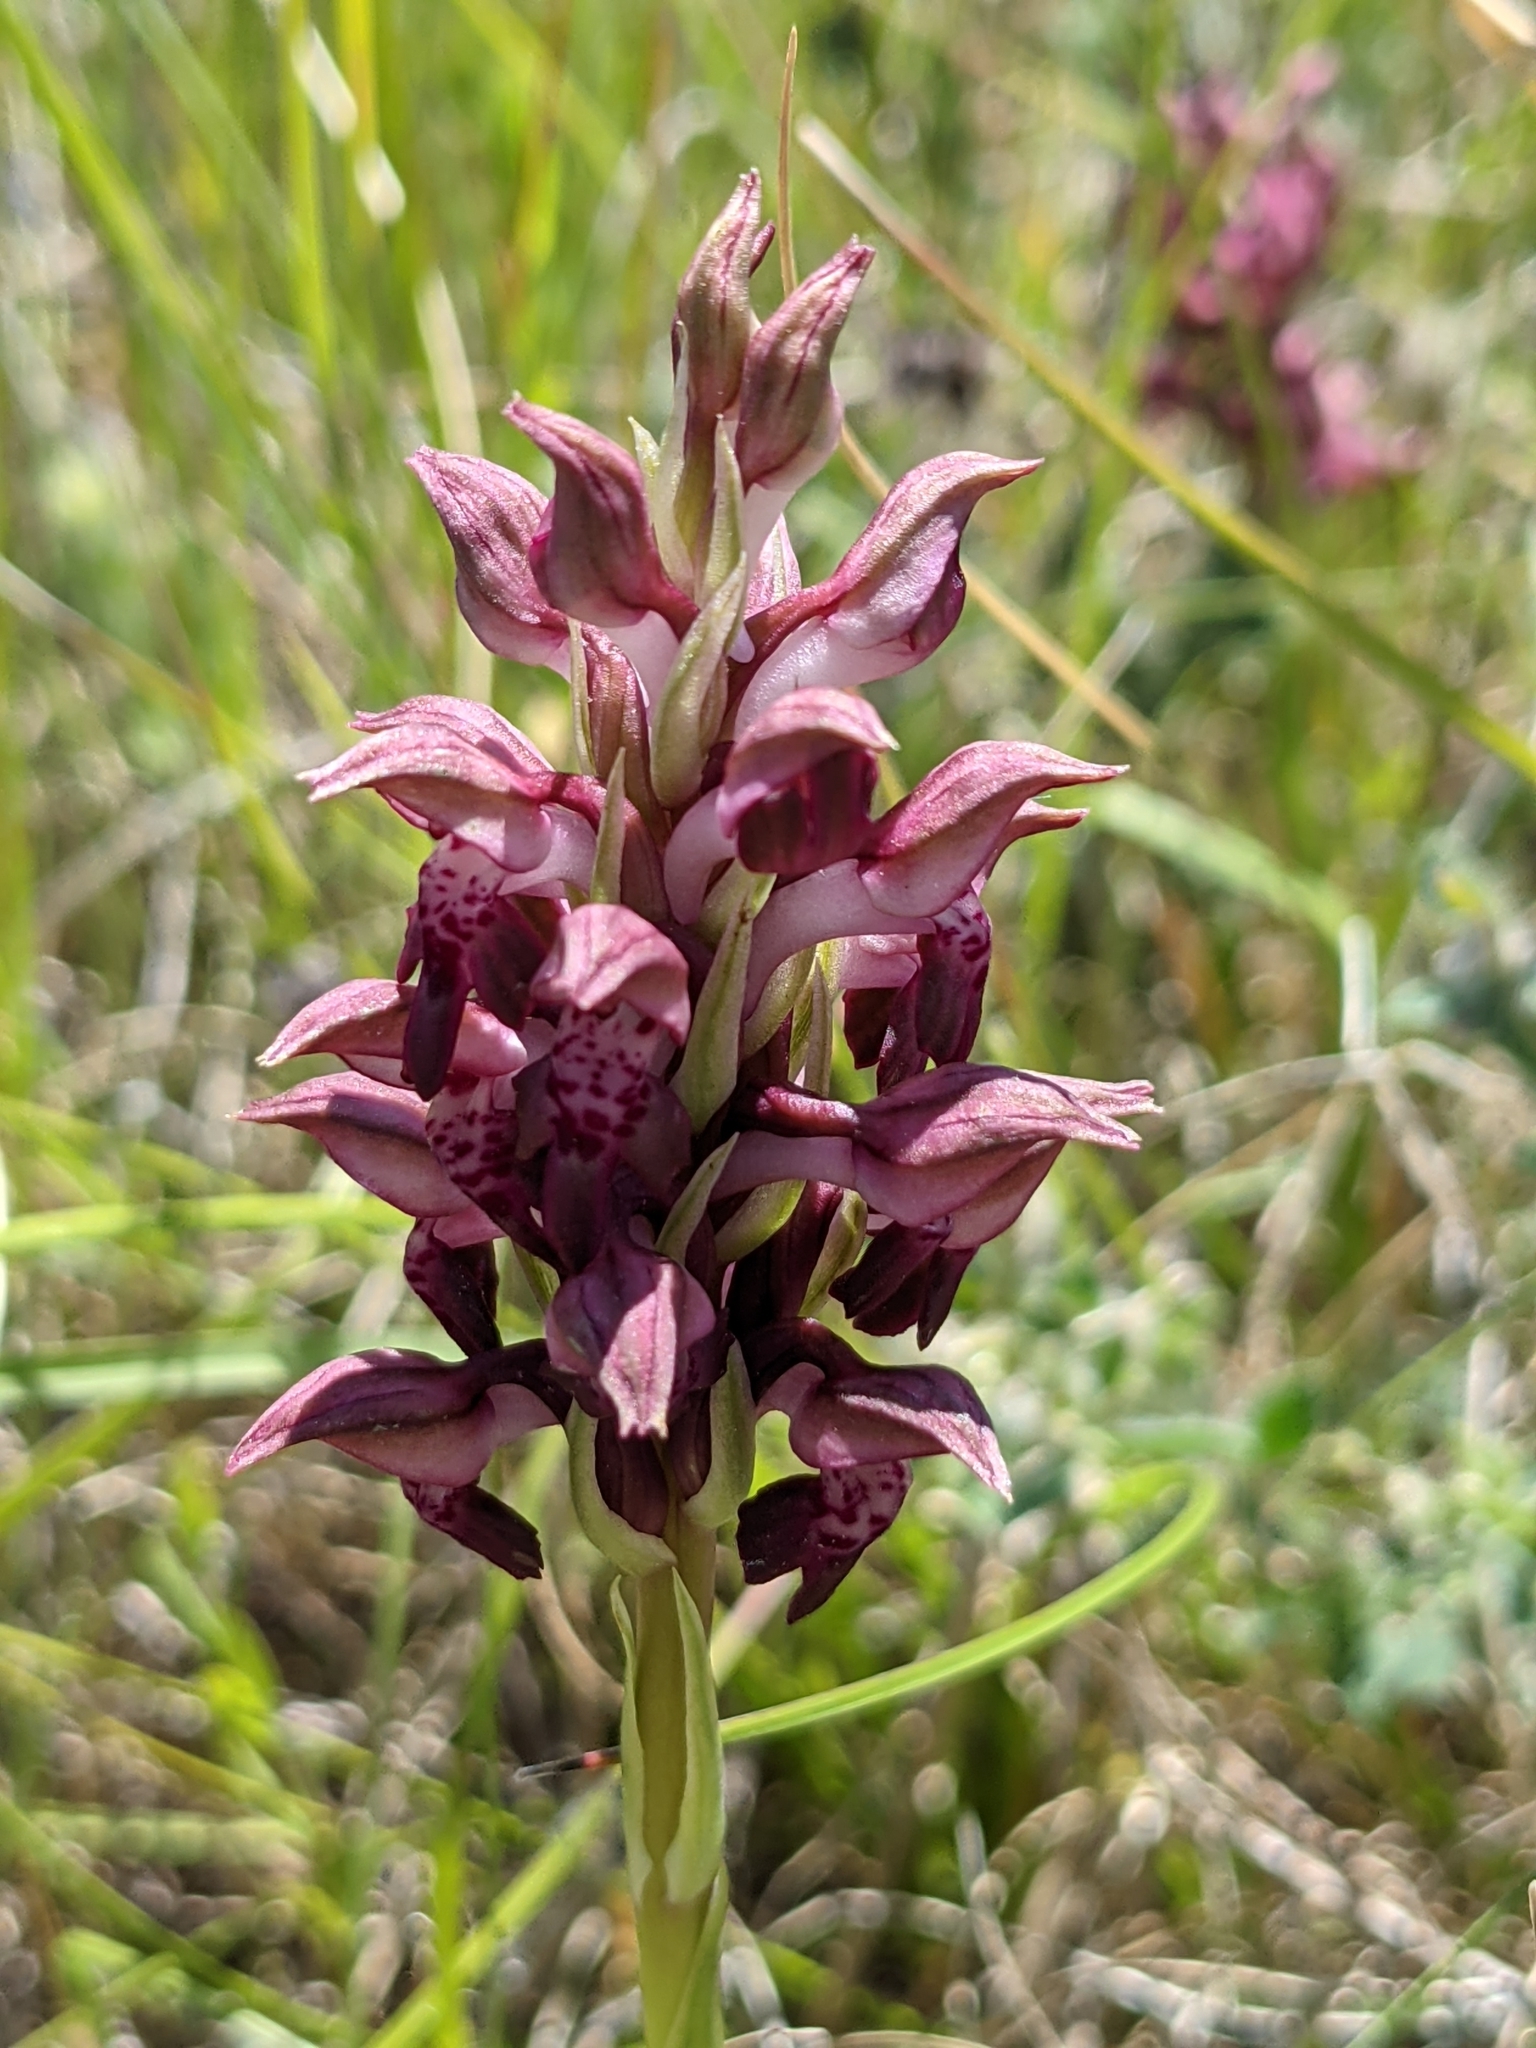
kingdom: Plantae
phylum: Tracheophyta
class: Liliopsida
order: Asparagales
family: Orchidaceae
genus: Anacamptis
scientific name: Anacamptis coriophora
